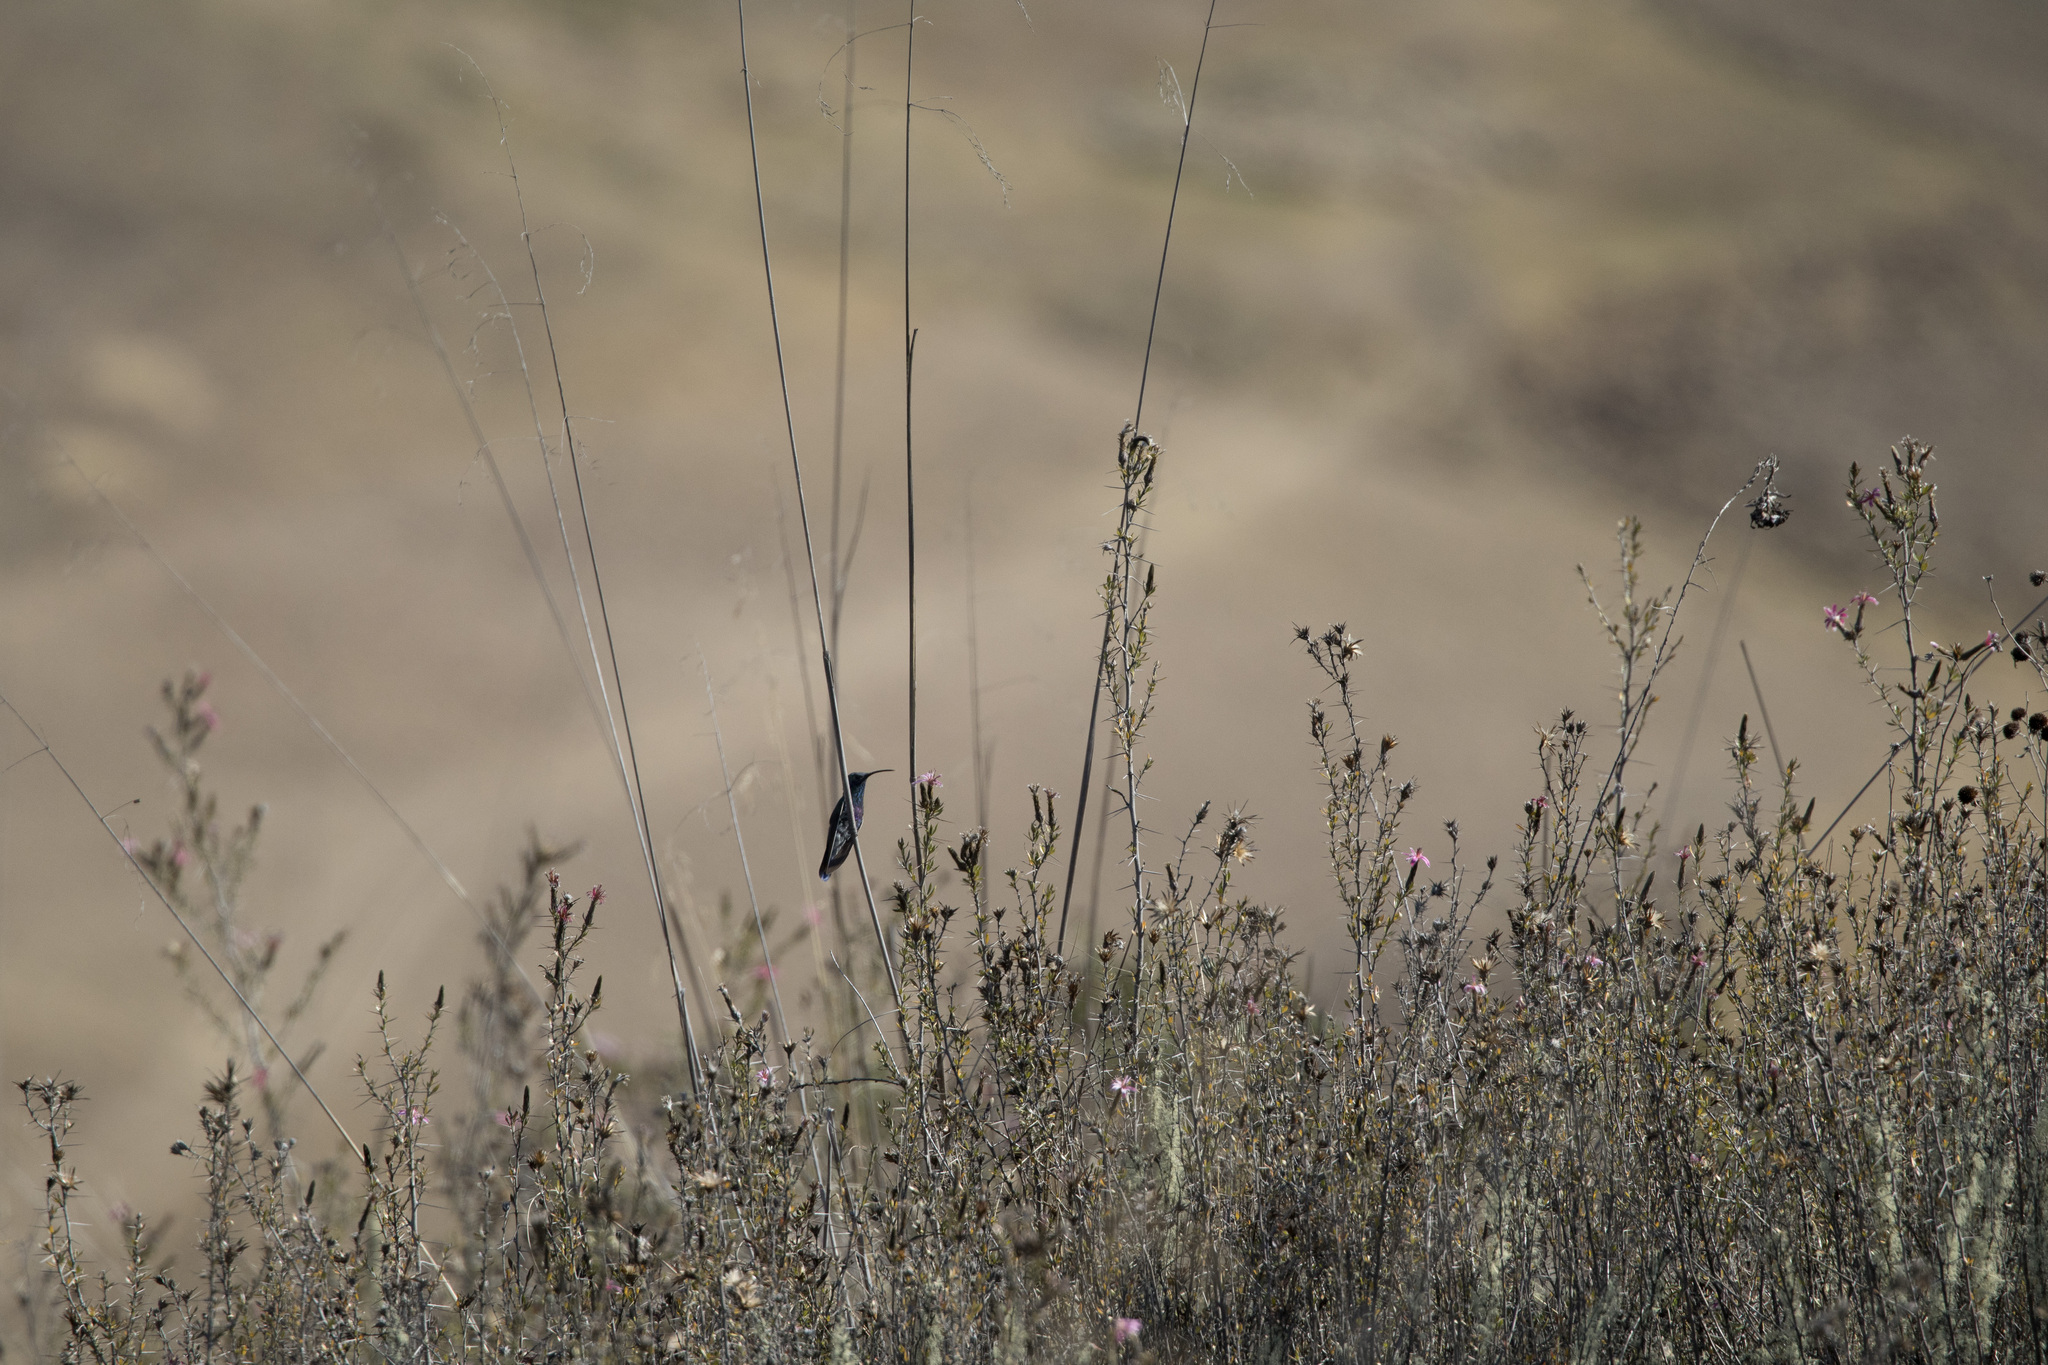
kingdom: Animalia
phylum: Chordata
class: Aves
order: Apodiformes
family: Trochilidae
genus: Colibri
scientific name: Colibri coruscans
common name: Sparkling violetear
